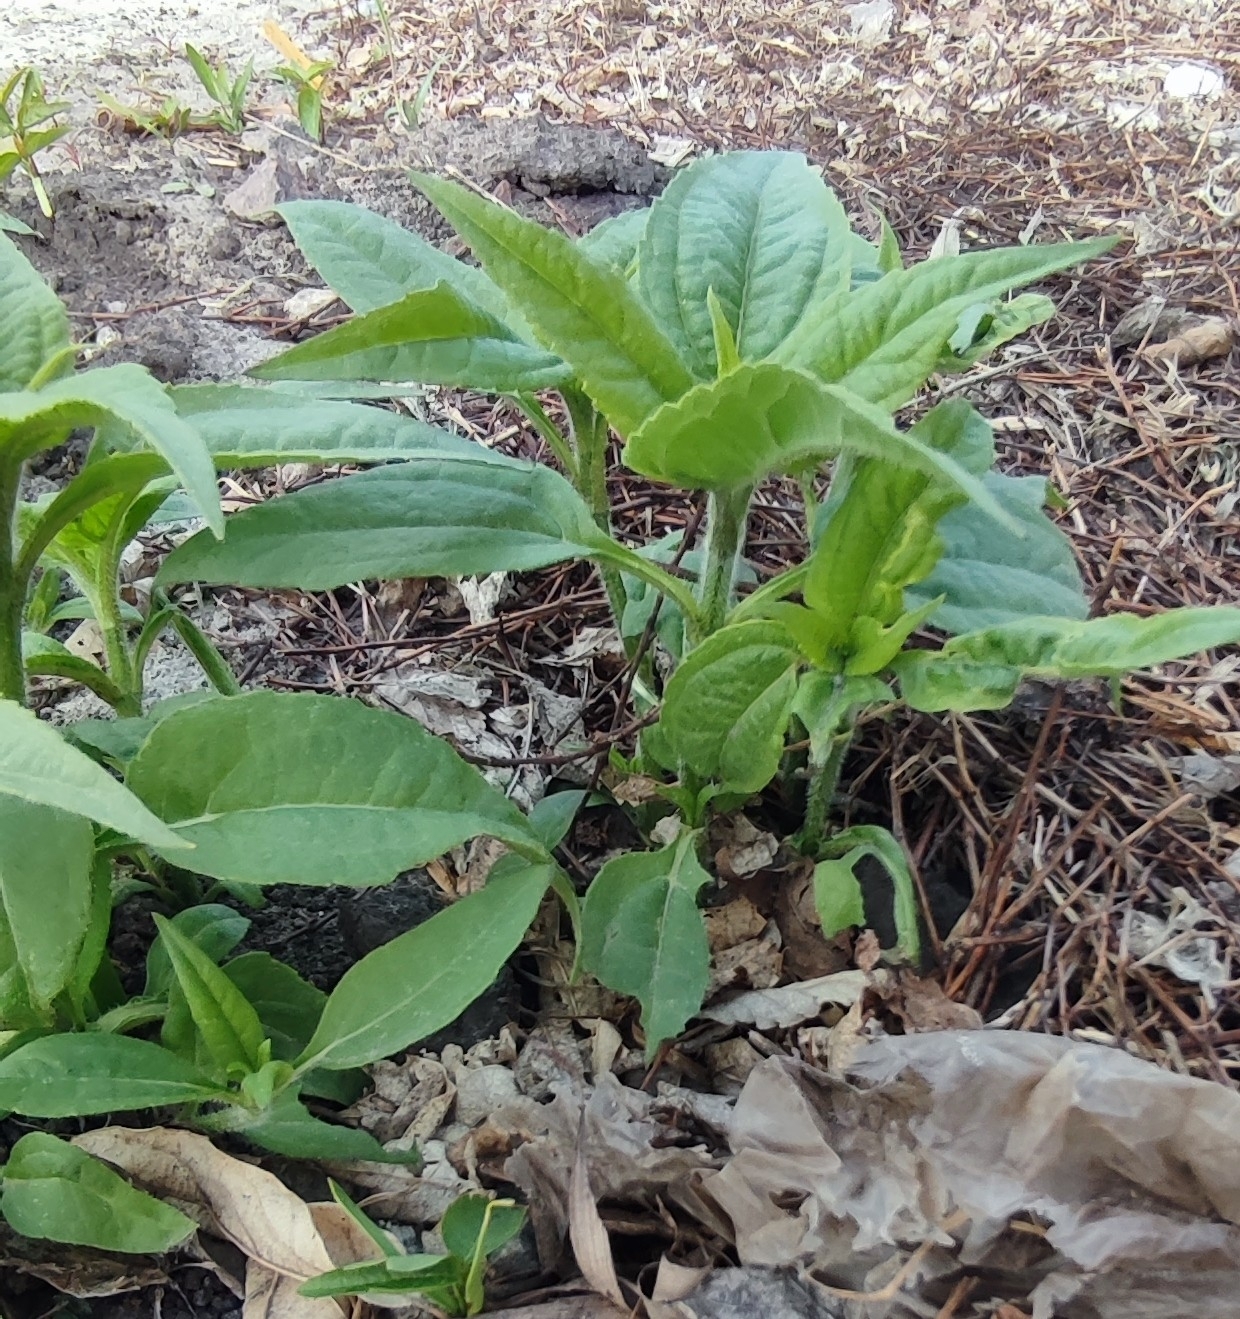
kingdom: Plantae
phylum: Tracheophyta
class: Magnoliopsida
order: Asterales
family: Asteraceae
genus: Helianthus
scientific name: Helianthus tuberosus
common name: Jerusalem artichoke
